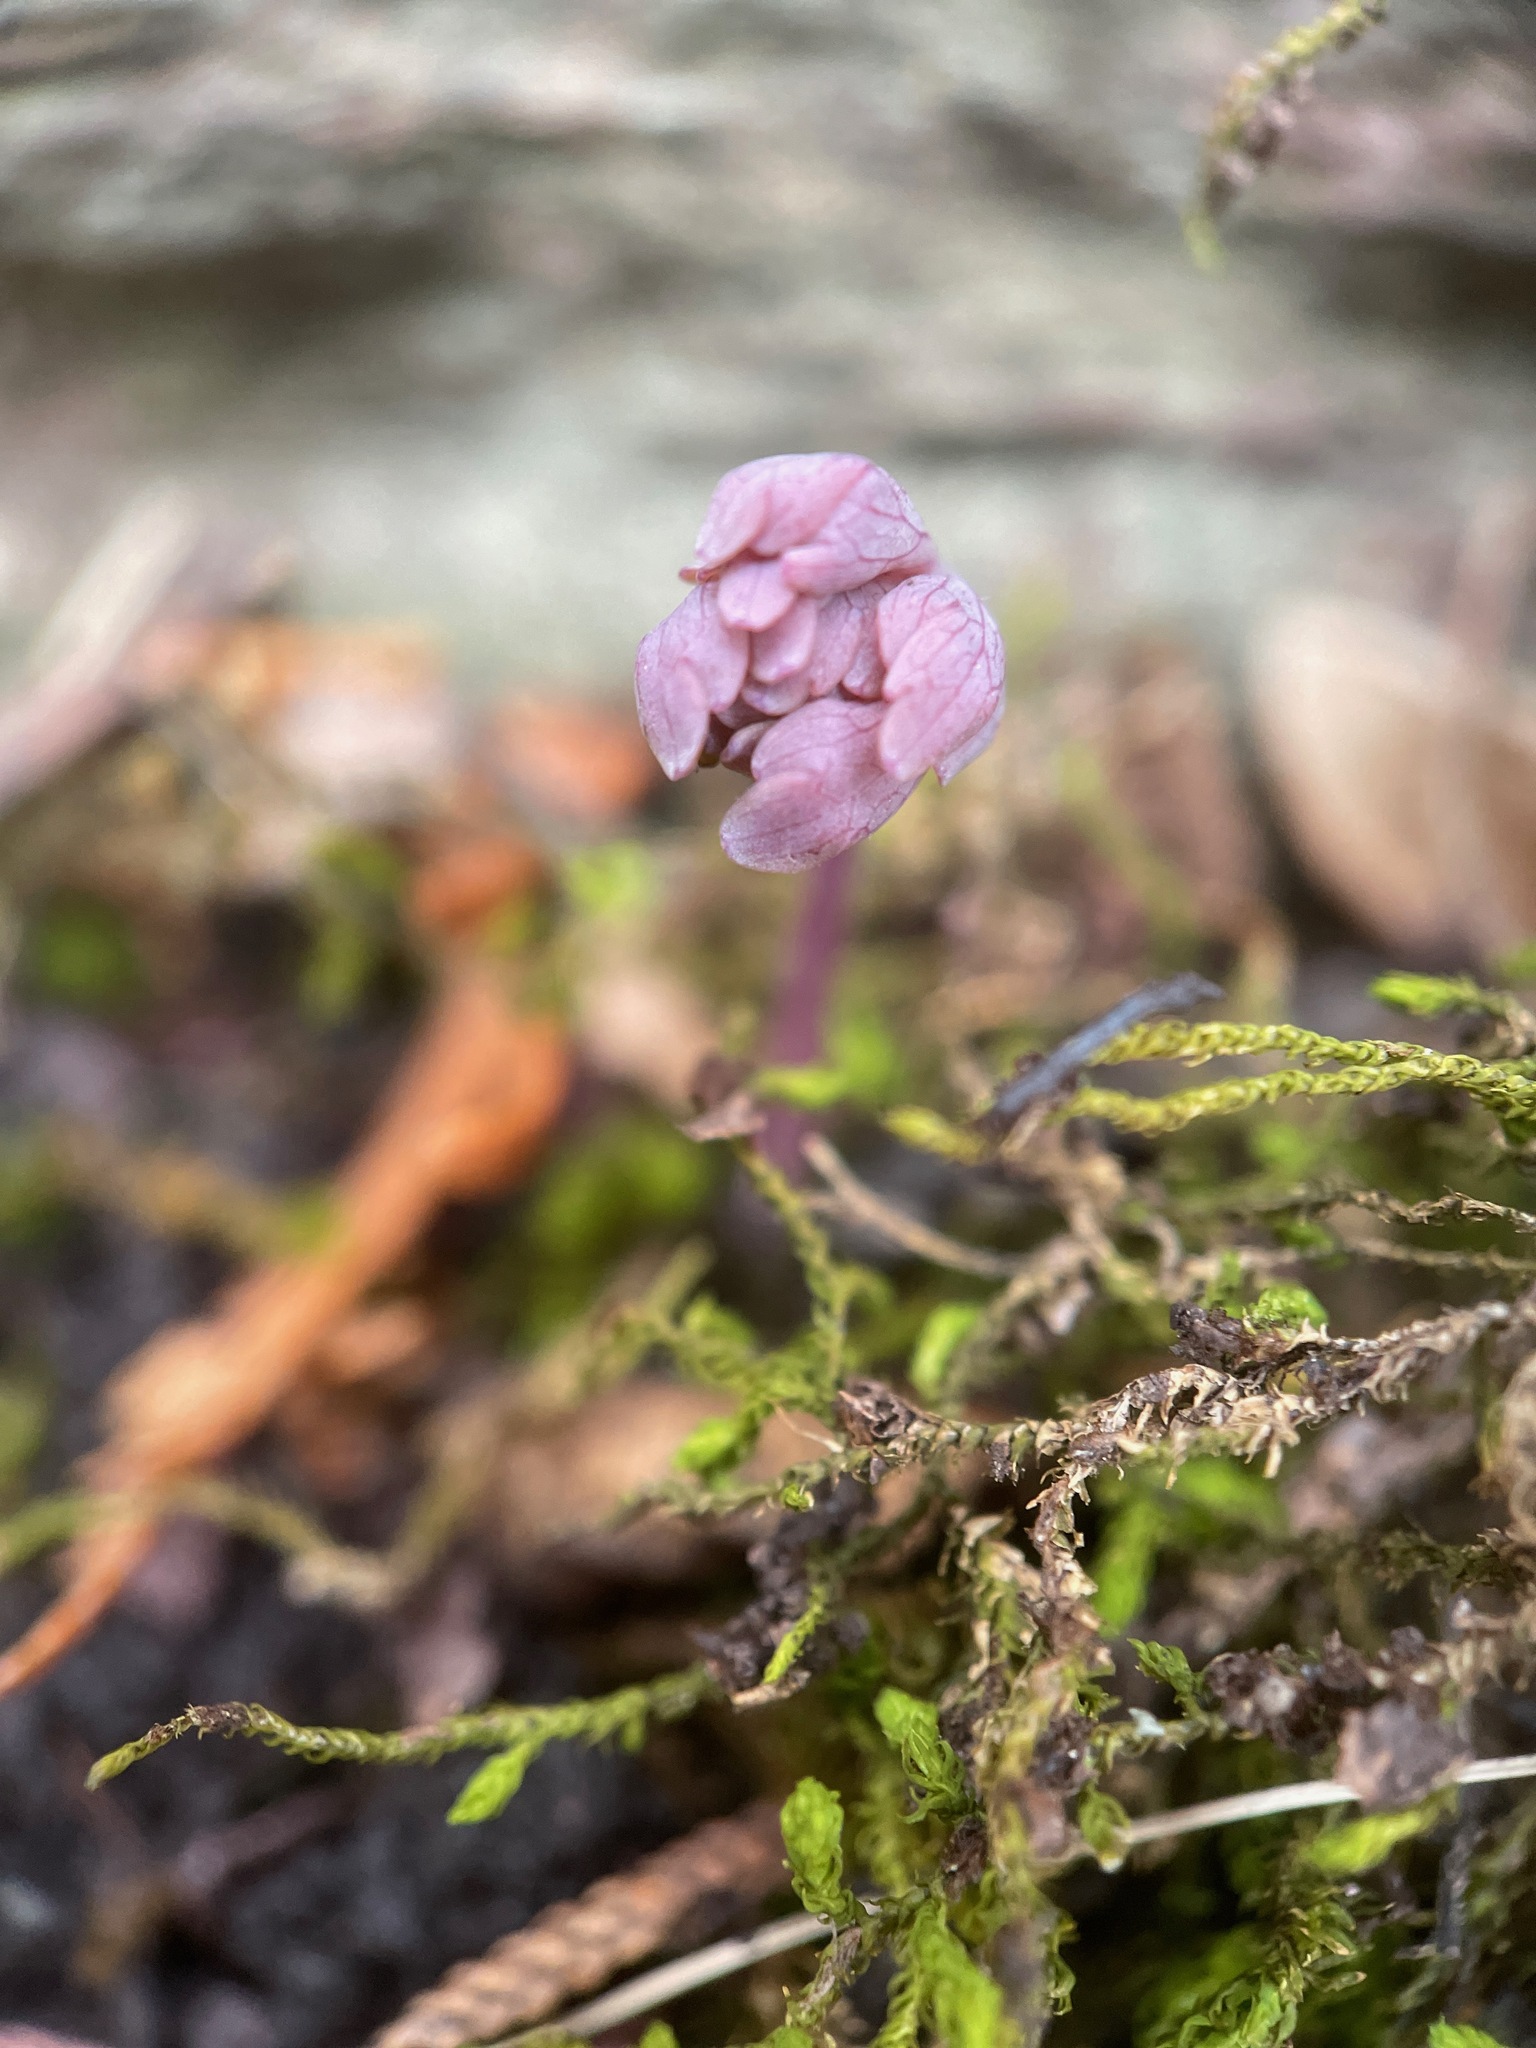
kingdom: Plantae
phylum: Tracheophyta
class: Magnoliopsida
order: Ranunculales
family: Ranunculaceae
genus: Aquilegia
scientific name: Aquilegia canadensis
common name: American columbine
